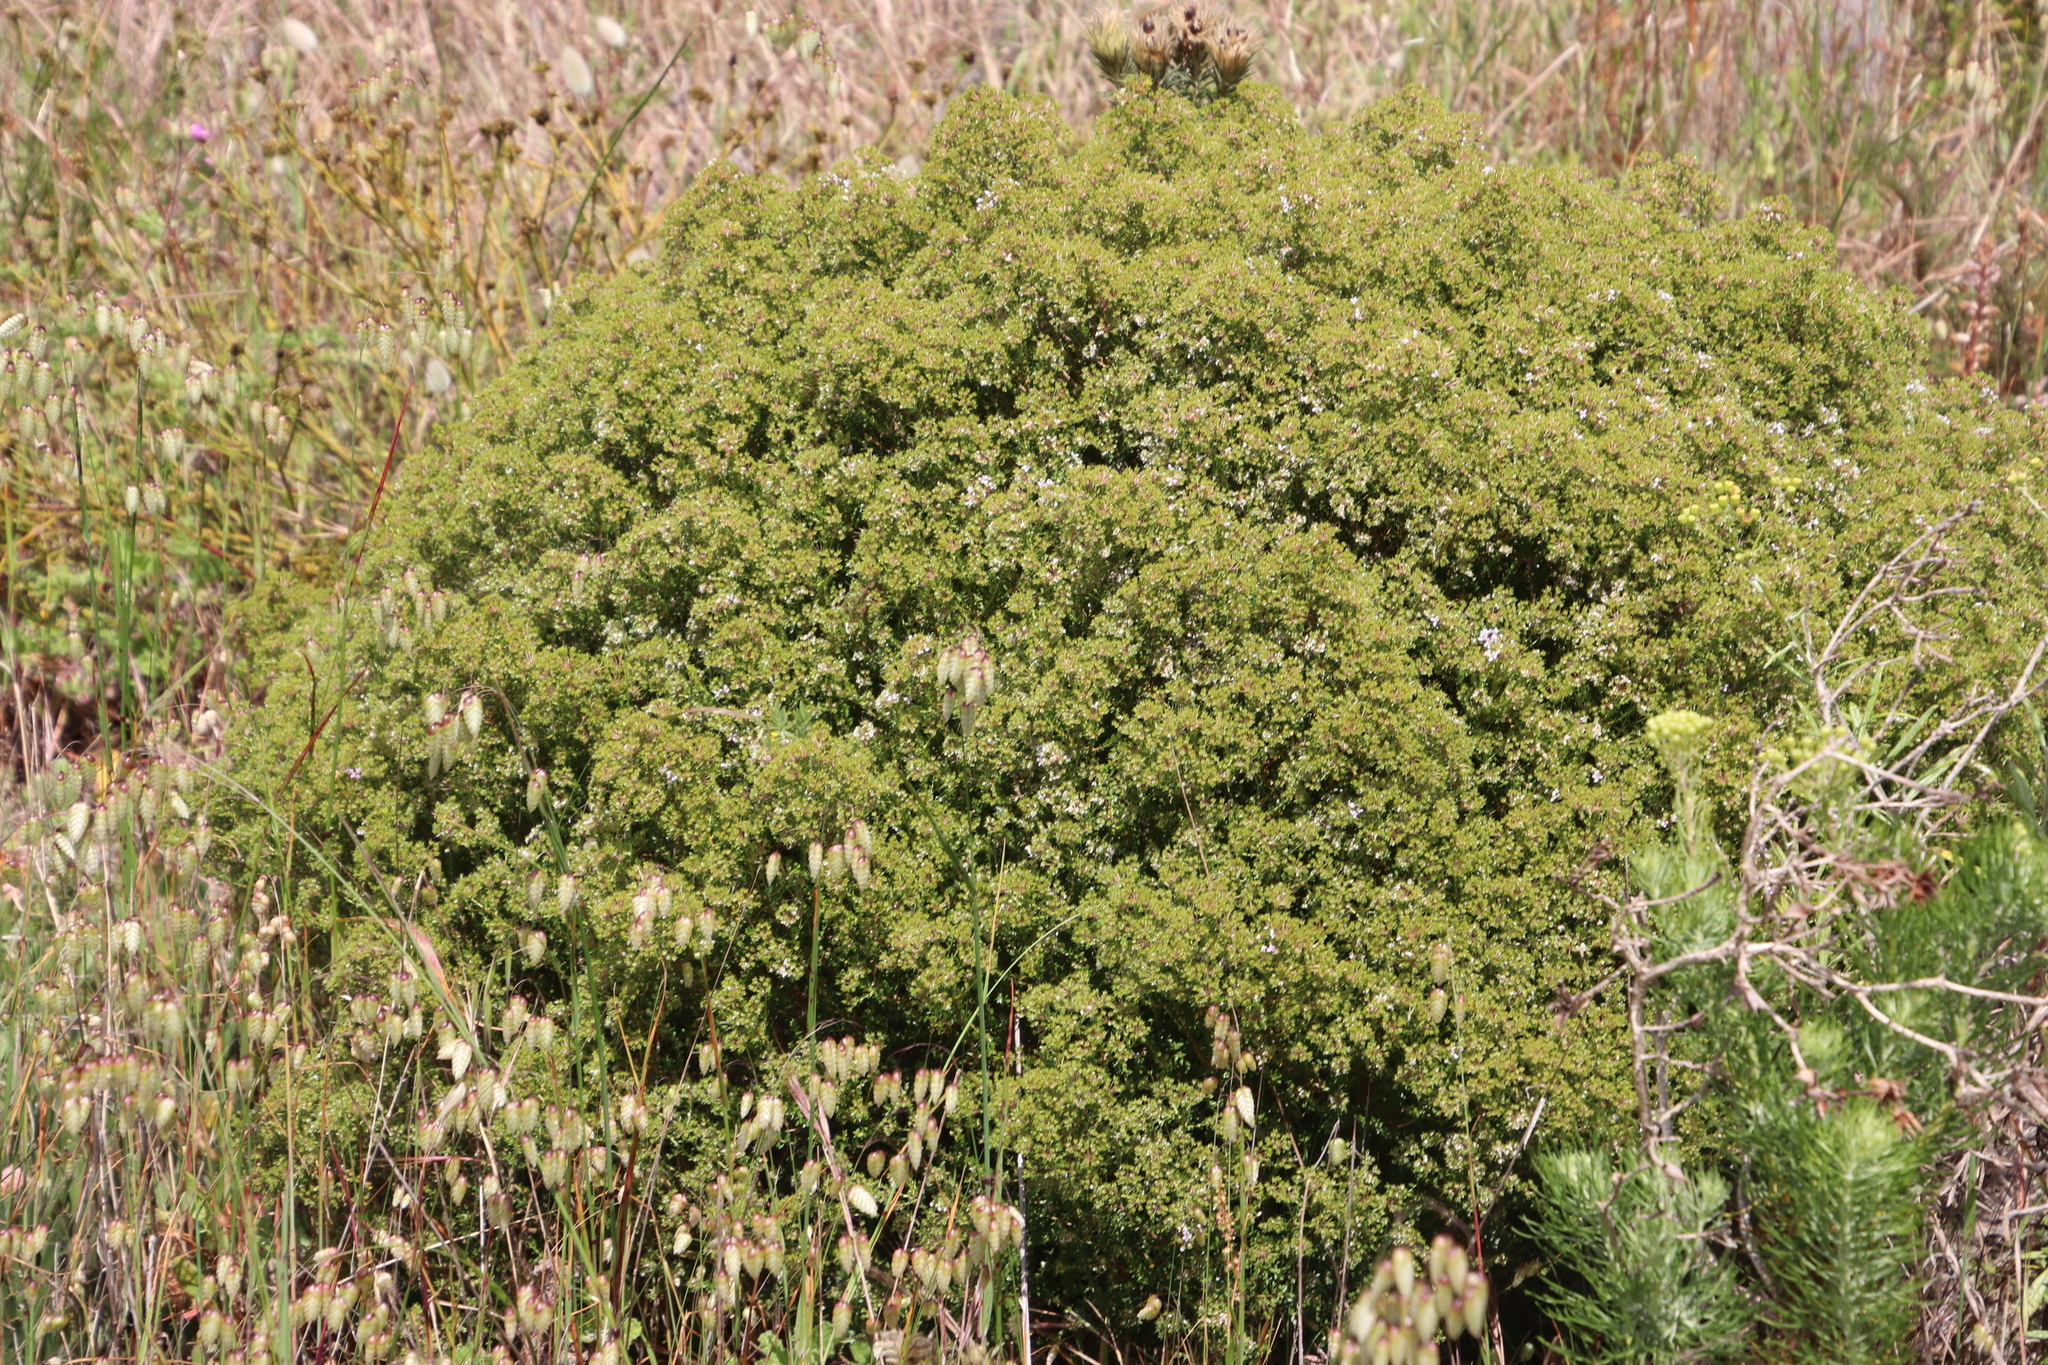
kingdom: Plantae
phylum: Tracheophyta
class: Magnoliopsida
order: Sapindales
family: Rutaceae
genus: Agathosma
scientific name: Agathosma glabrata
